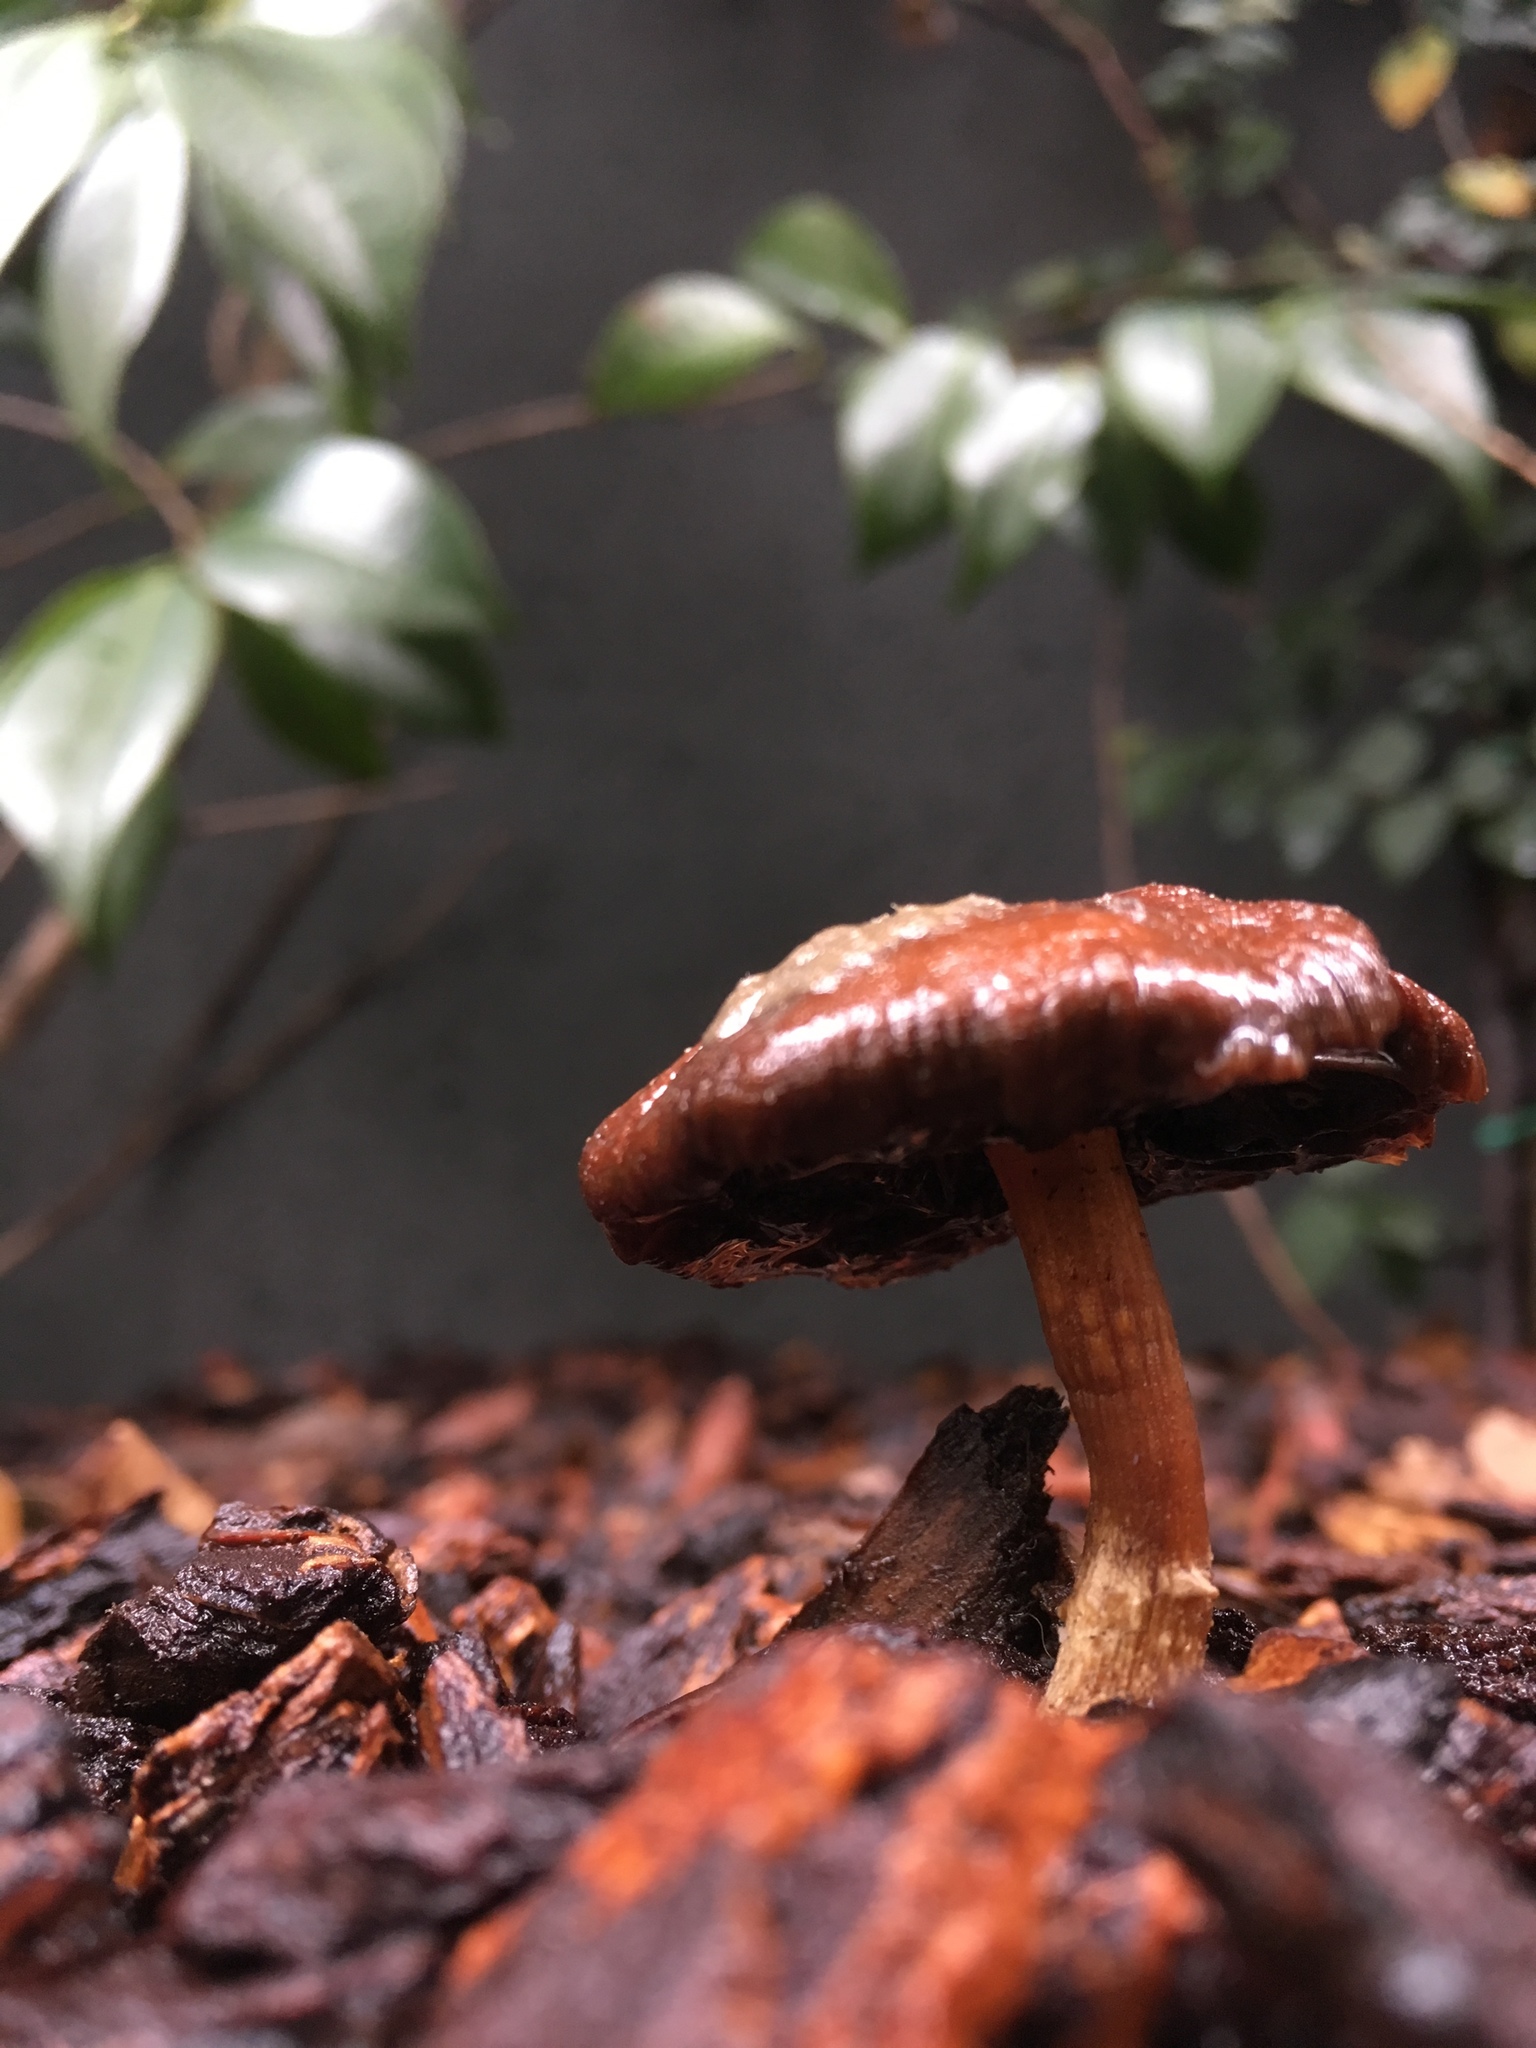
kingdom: Fungi
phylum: Basidiomycota
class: Agaricomycetes
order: Agaricales
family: Strophariaceae
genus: Leratiomyces
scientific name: Leratiomyces ceres
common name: Redlead roundhead
